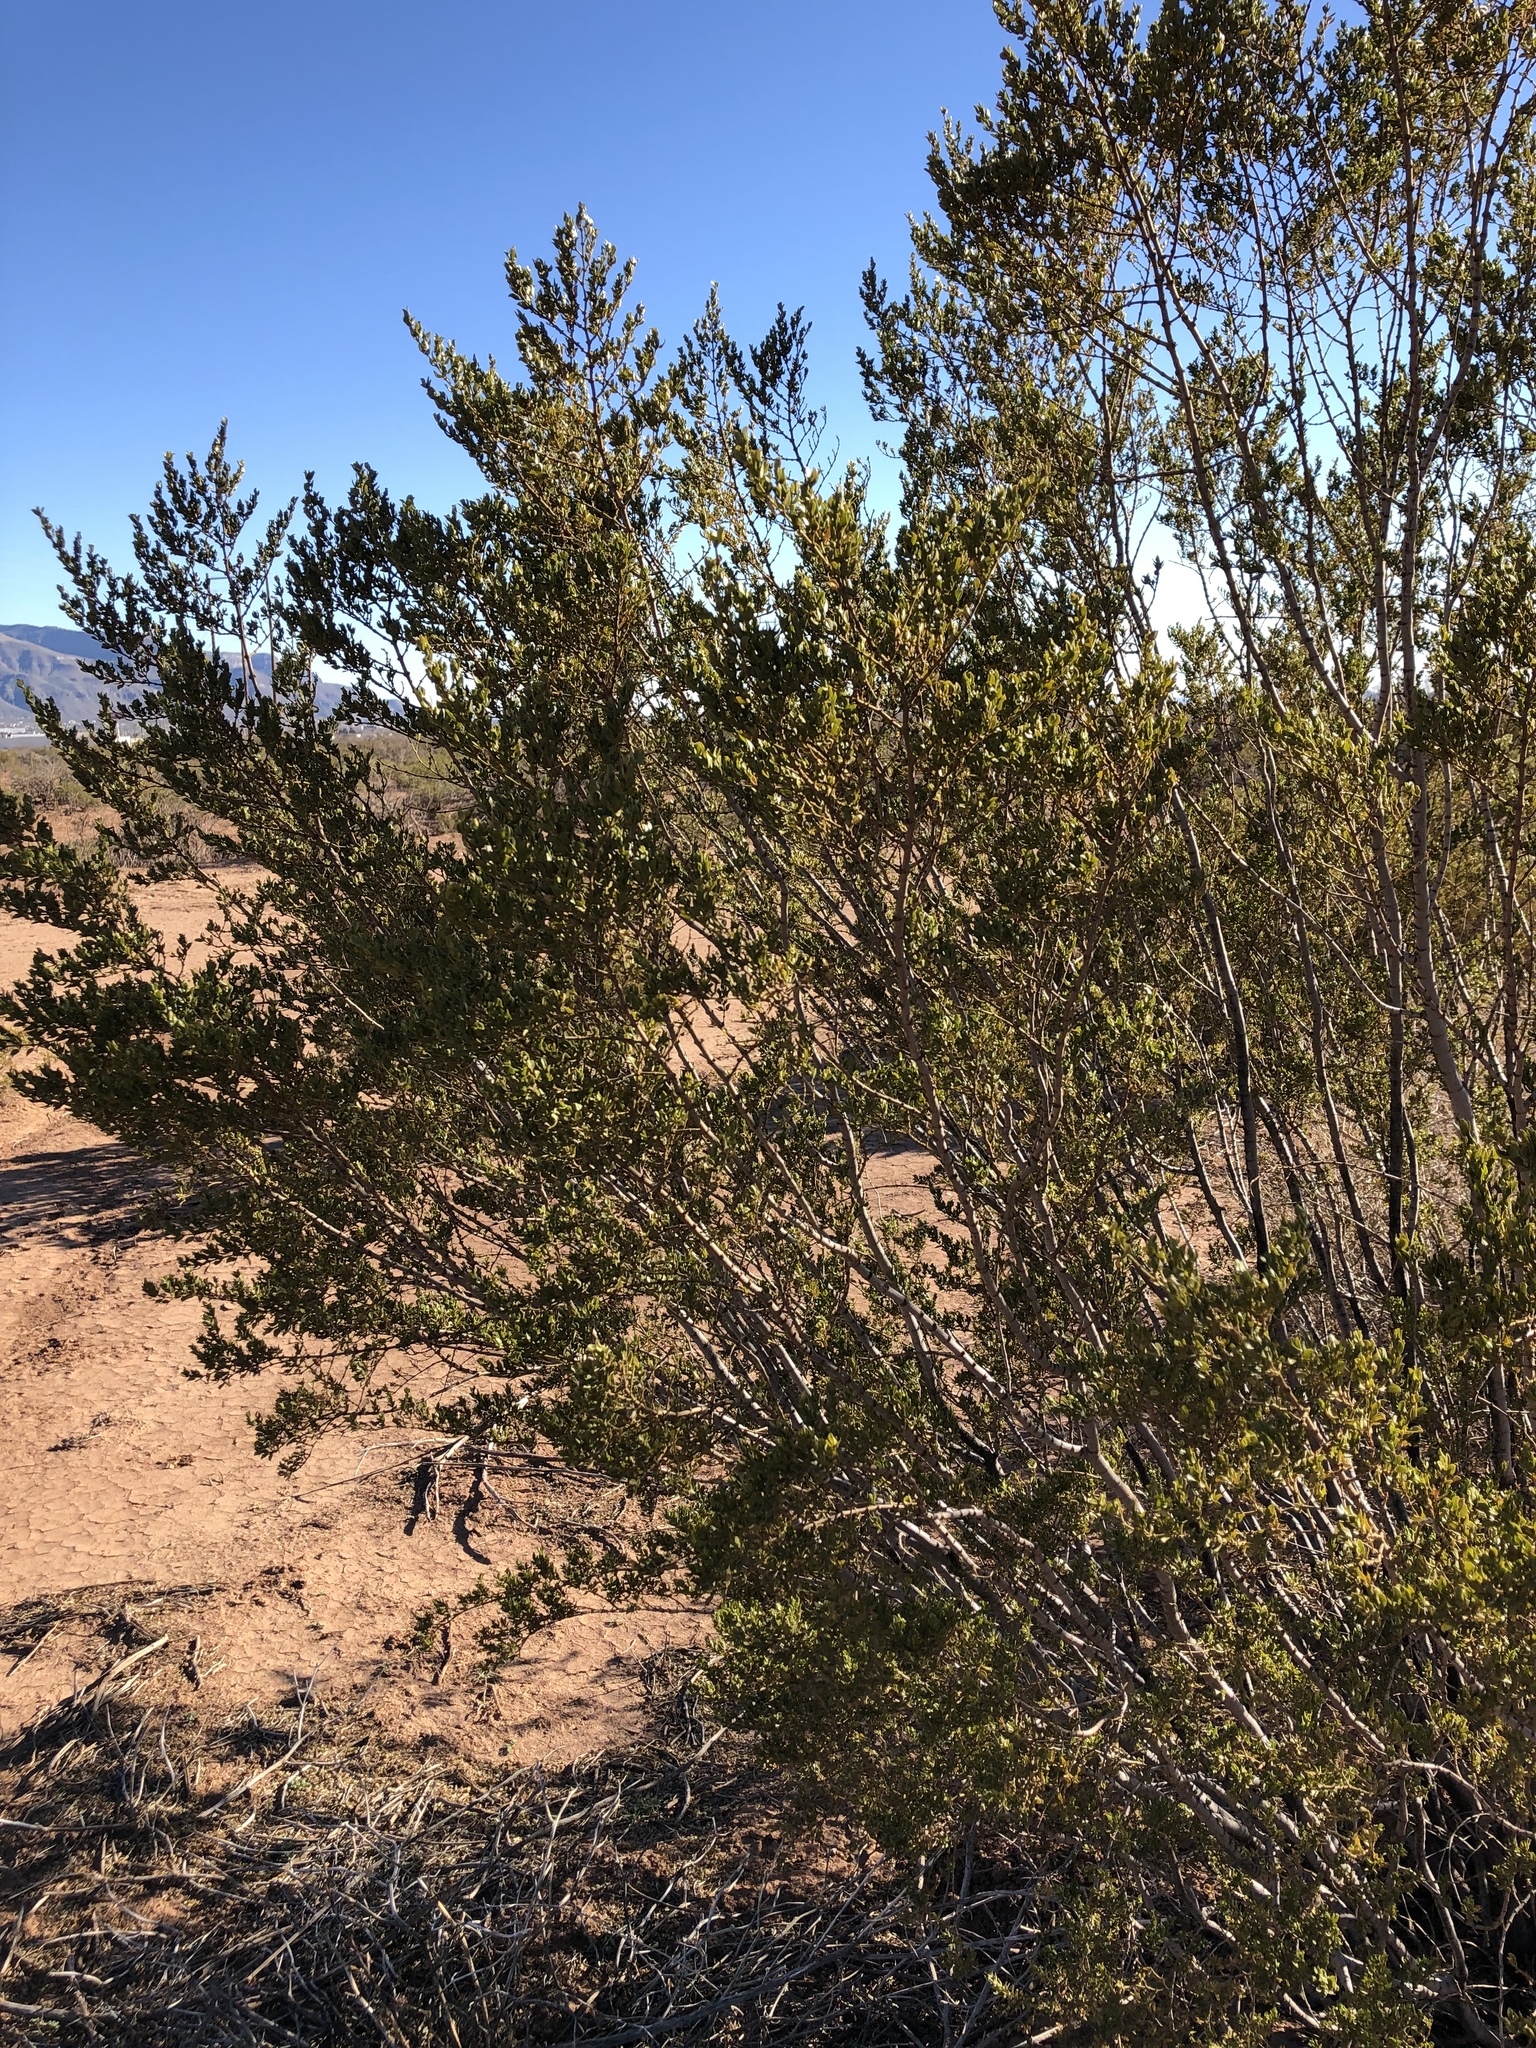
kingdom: Plantae
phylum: Tracheophyta
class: Magnoliopsida
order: Zygophyllales
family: Zygophyllaceae
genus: Larrea
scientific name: Larrea tridentata
